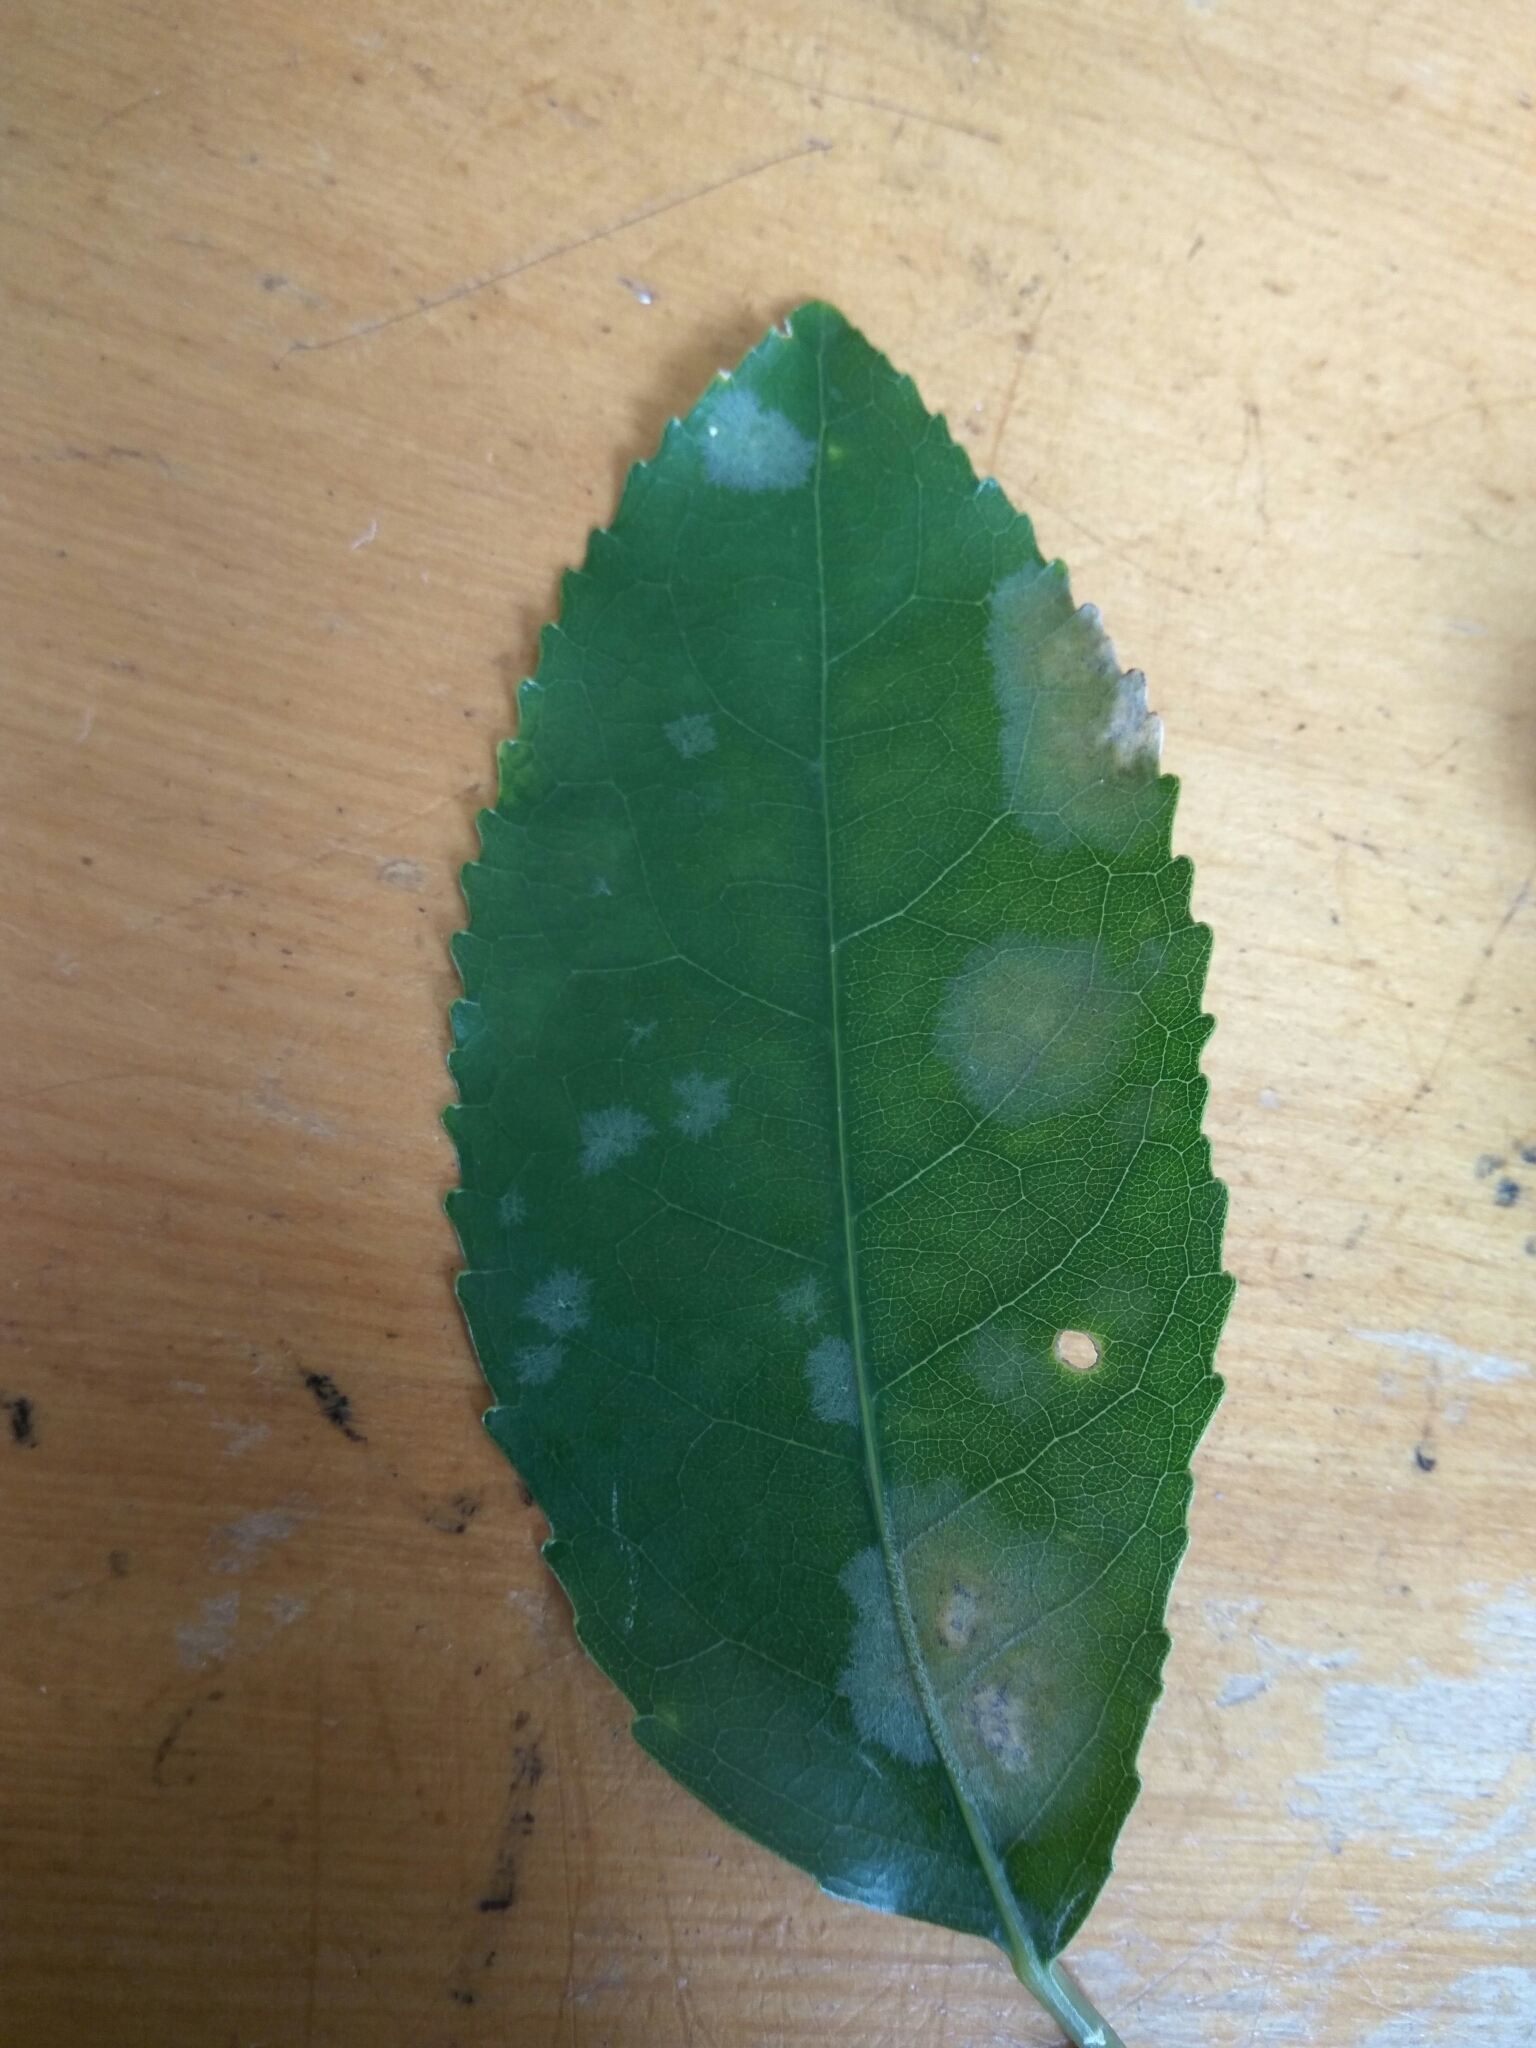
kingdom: Plantae
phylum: Chlorophyta
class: Ulvophyceae
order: Trentepohliales
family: Trentepohliaceae
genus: Cephaleuros
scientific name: Cephaleuros
